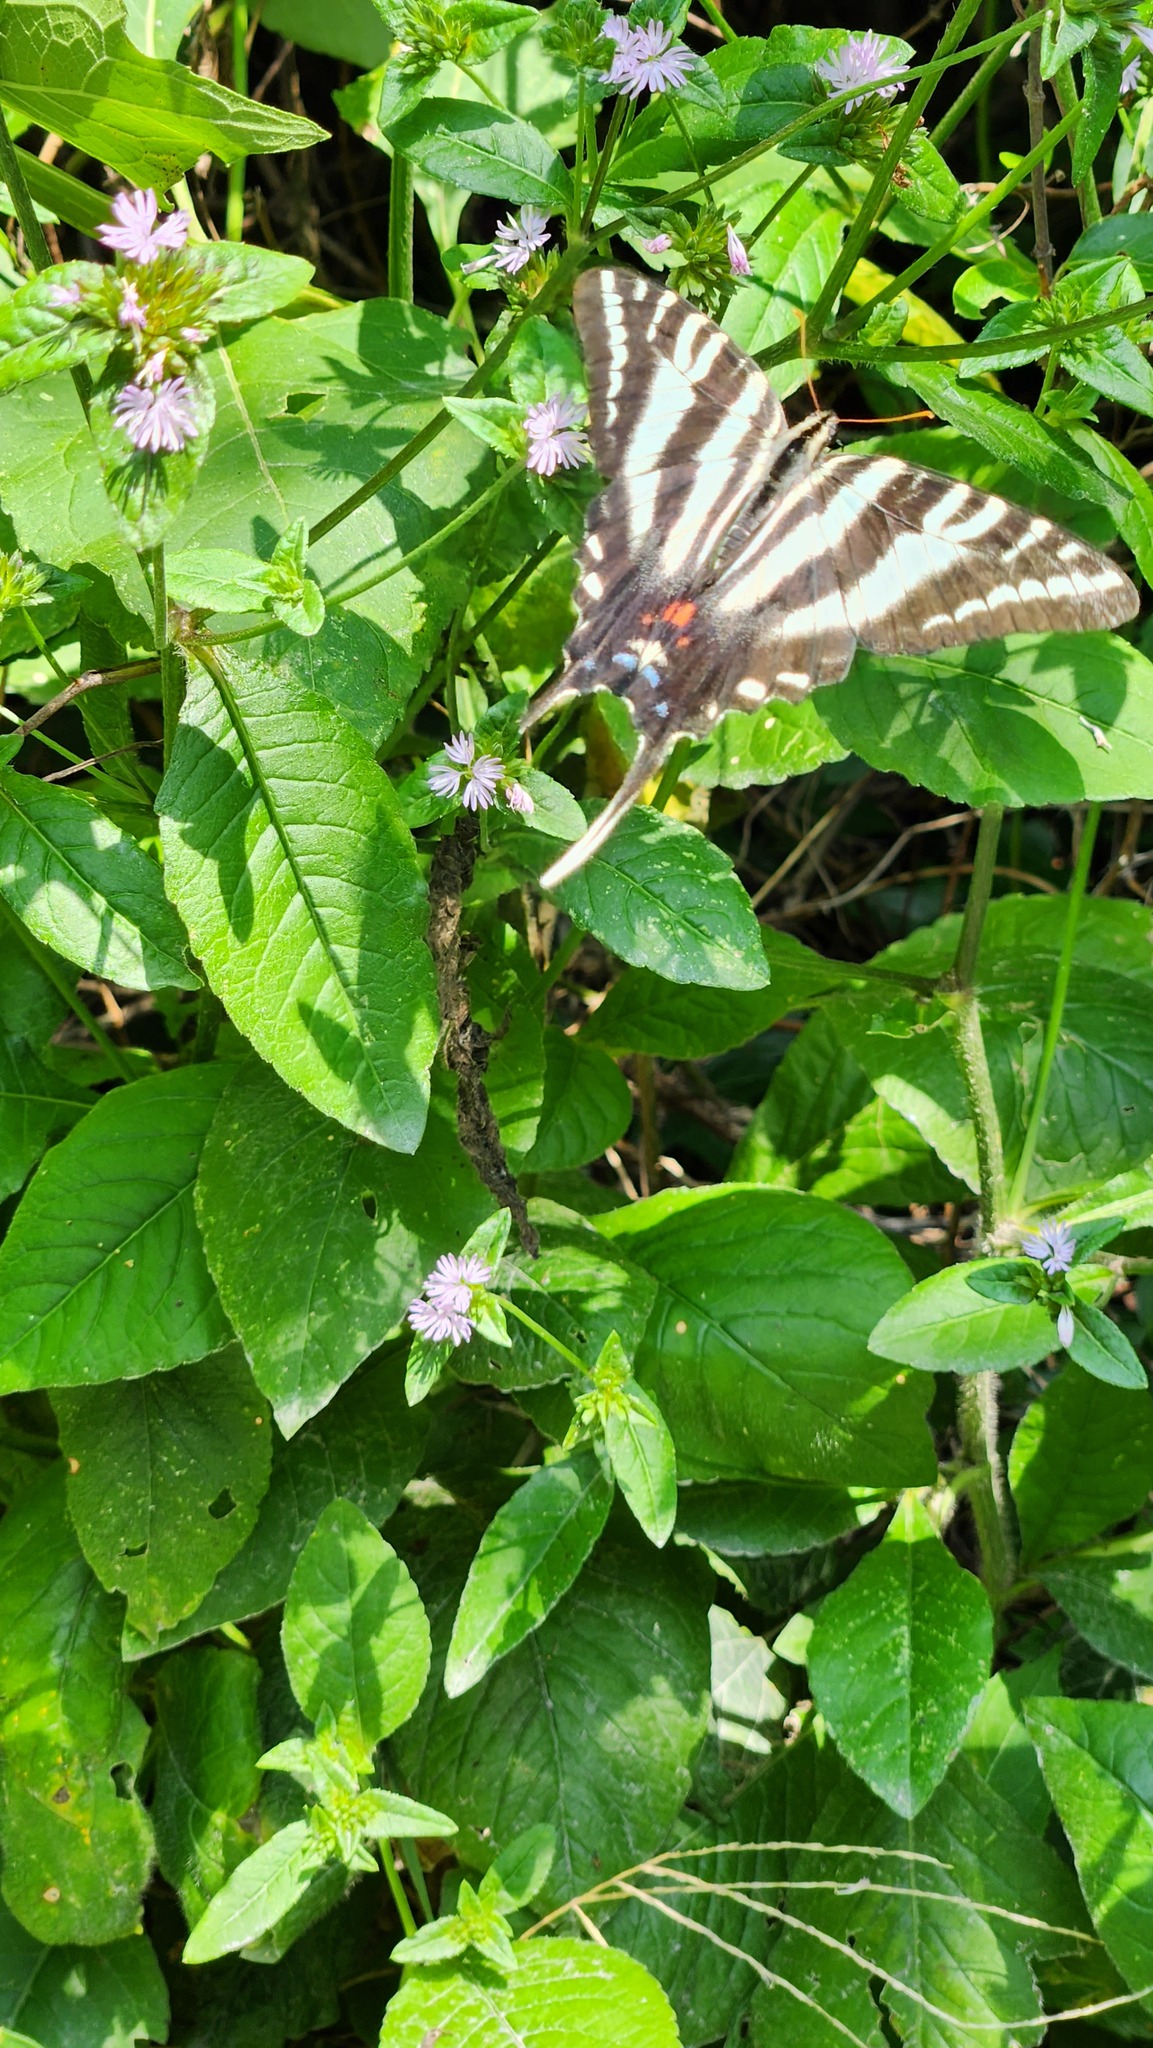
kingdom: Animalia
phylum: Arthropoda
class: Insecta
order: Lepidoptera
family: Papilionidae
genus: Protographium
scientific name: Protographium marcellus
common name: Zebra swallowtail
